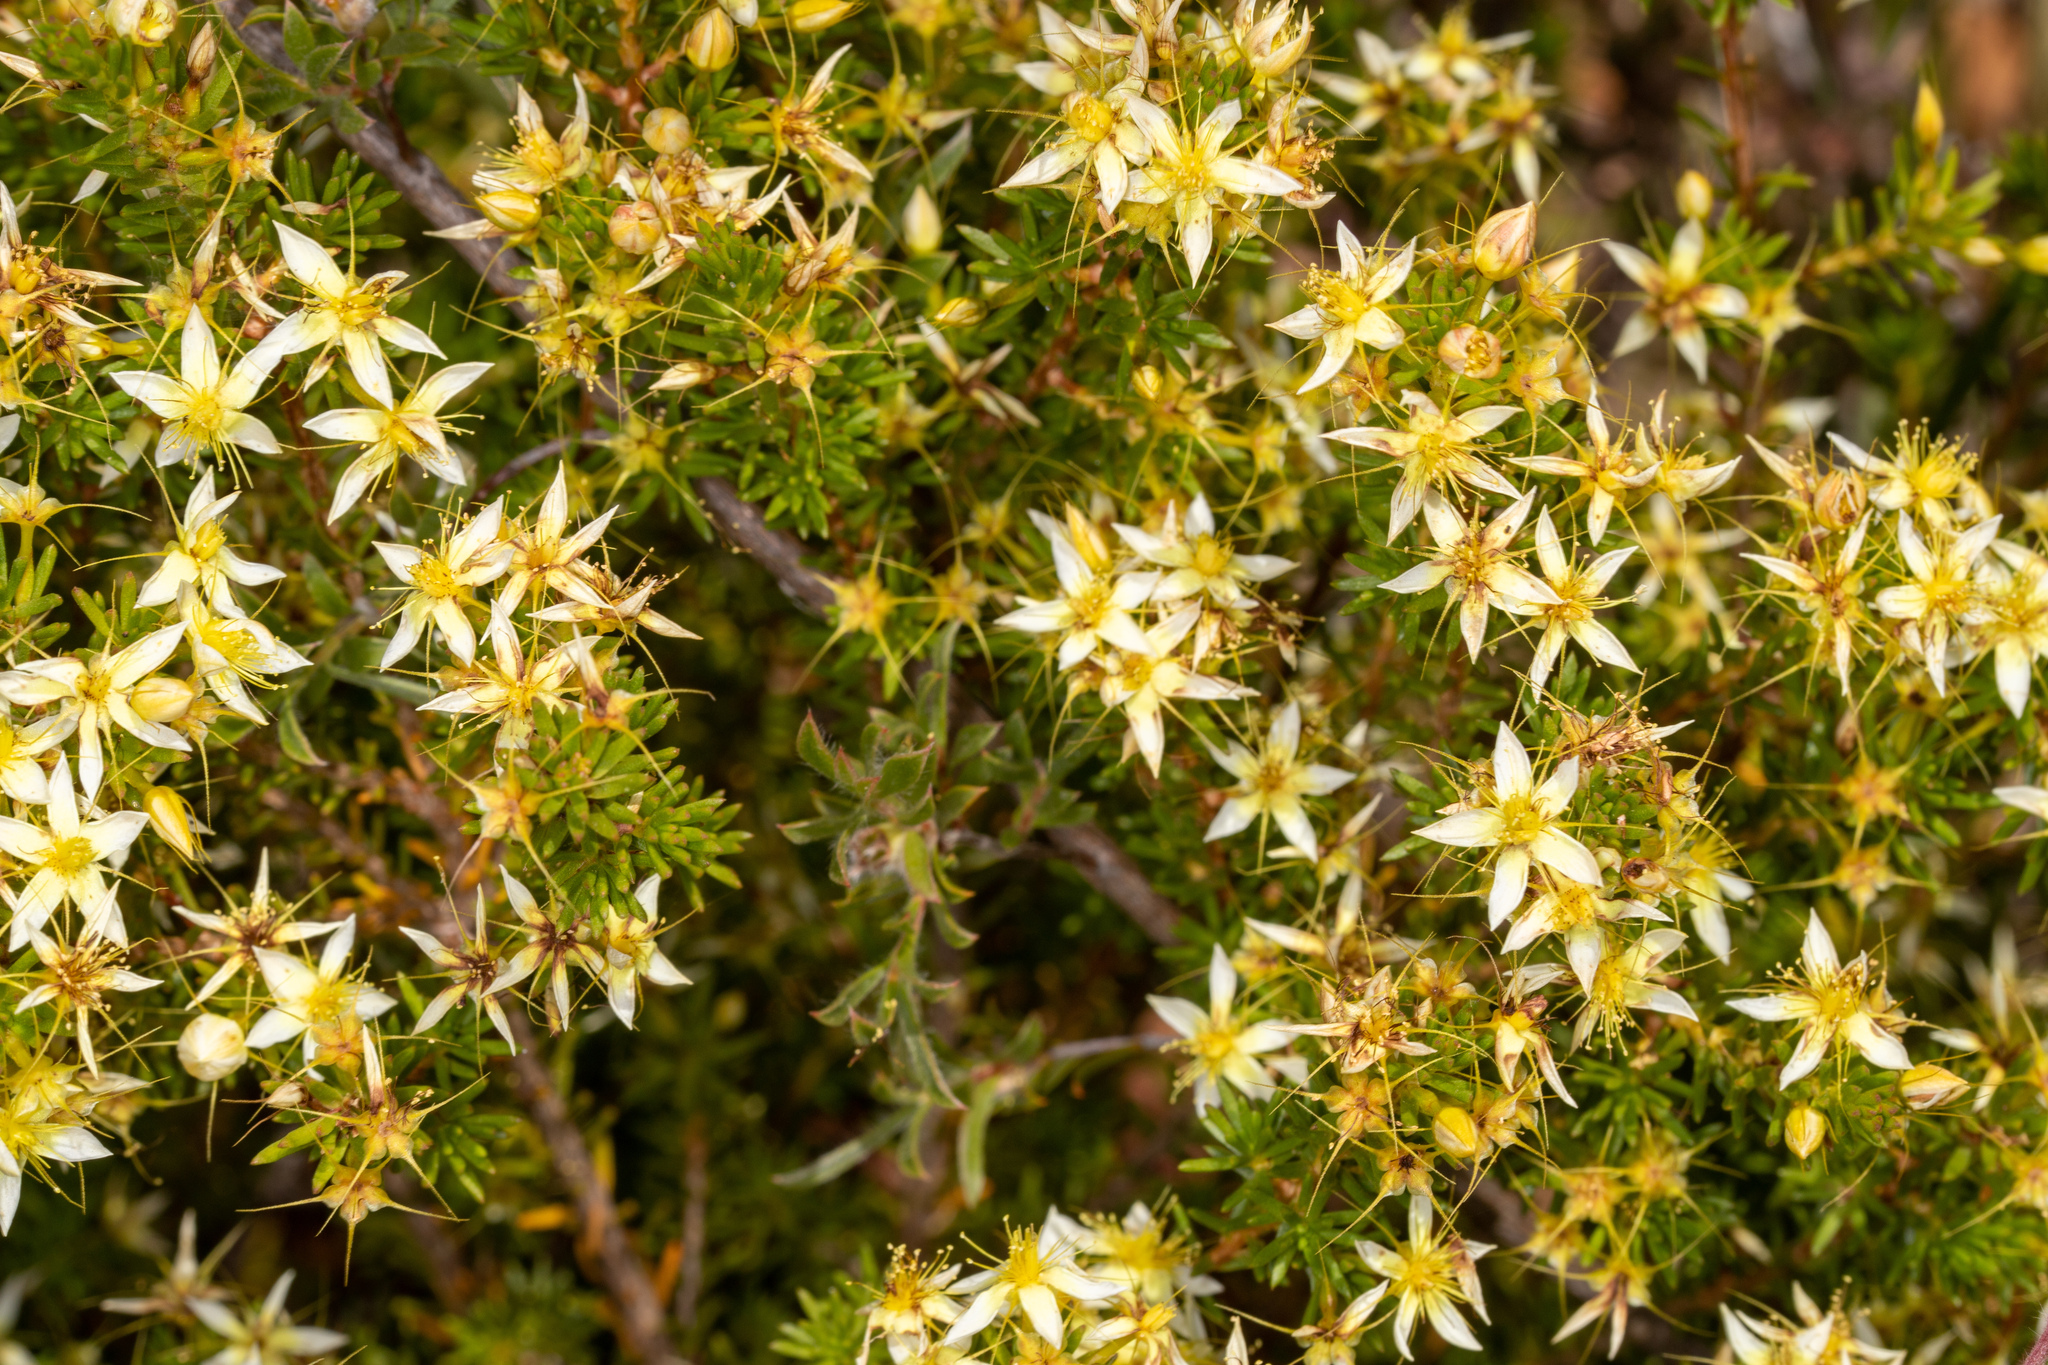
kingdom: Plantae
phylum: Tracheophyta
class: Magnoliopsida
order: Myrtales
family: Myrtaceae
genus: Calytrix
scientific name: Calytrix flavescens
